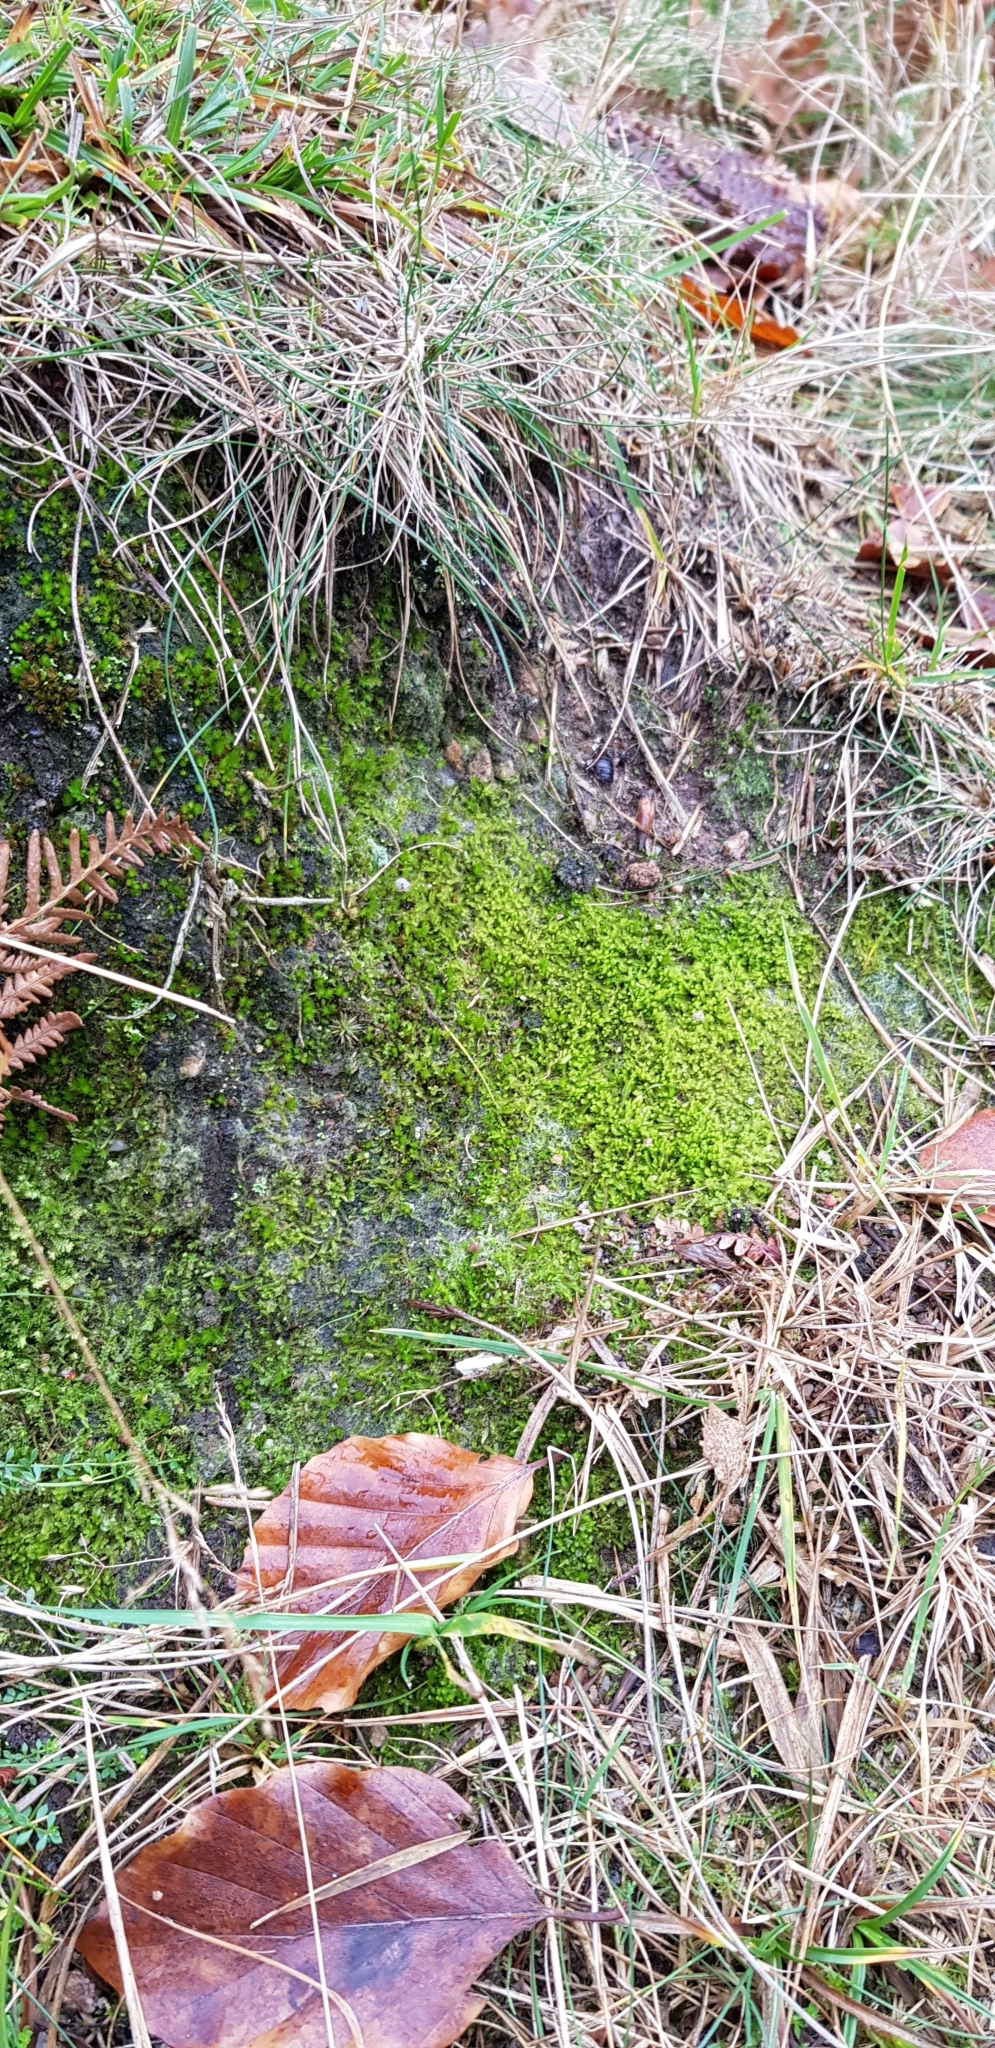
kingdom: Plantae
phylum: Marchantiophyta
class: Jungermanniopsida
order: Jungermanniales
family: Gymnomitriaceae
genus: Nardia
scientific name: Nardia scalaris
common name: Ladder flapwort
